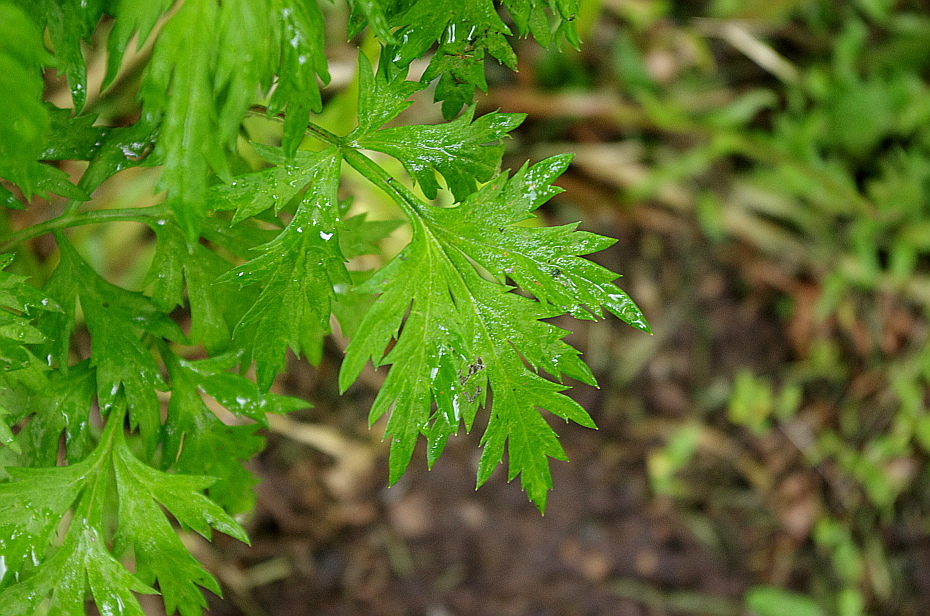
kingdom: Plantae
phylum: Tracheophyta
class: Magnoliopsida
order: Asterales
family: Asteraceae
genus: Artemisia
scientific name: Artemisia vulgaris
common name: Mugwort
